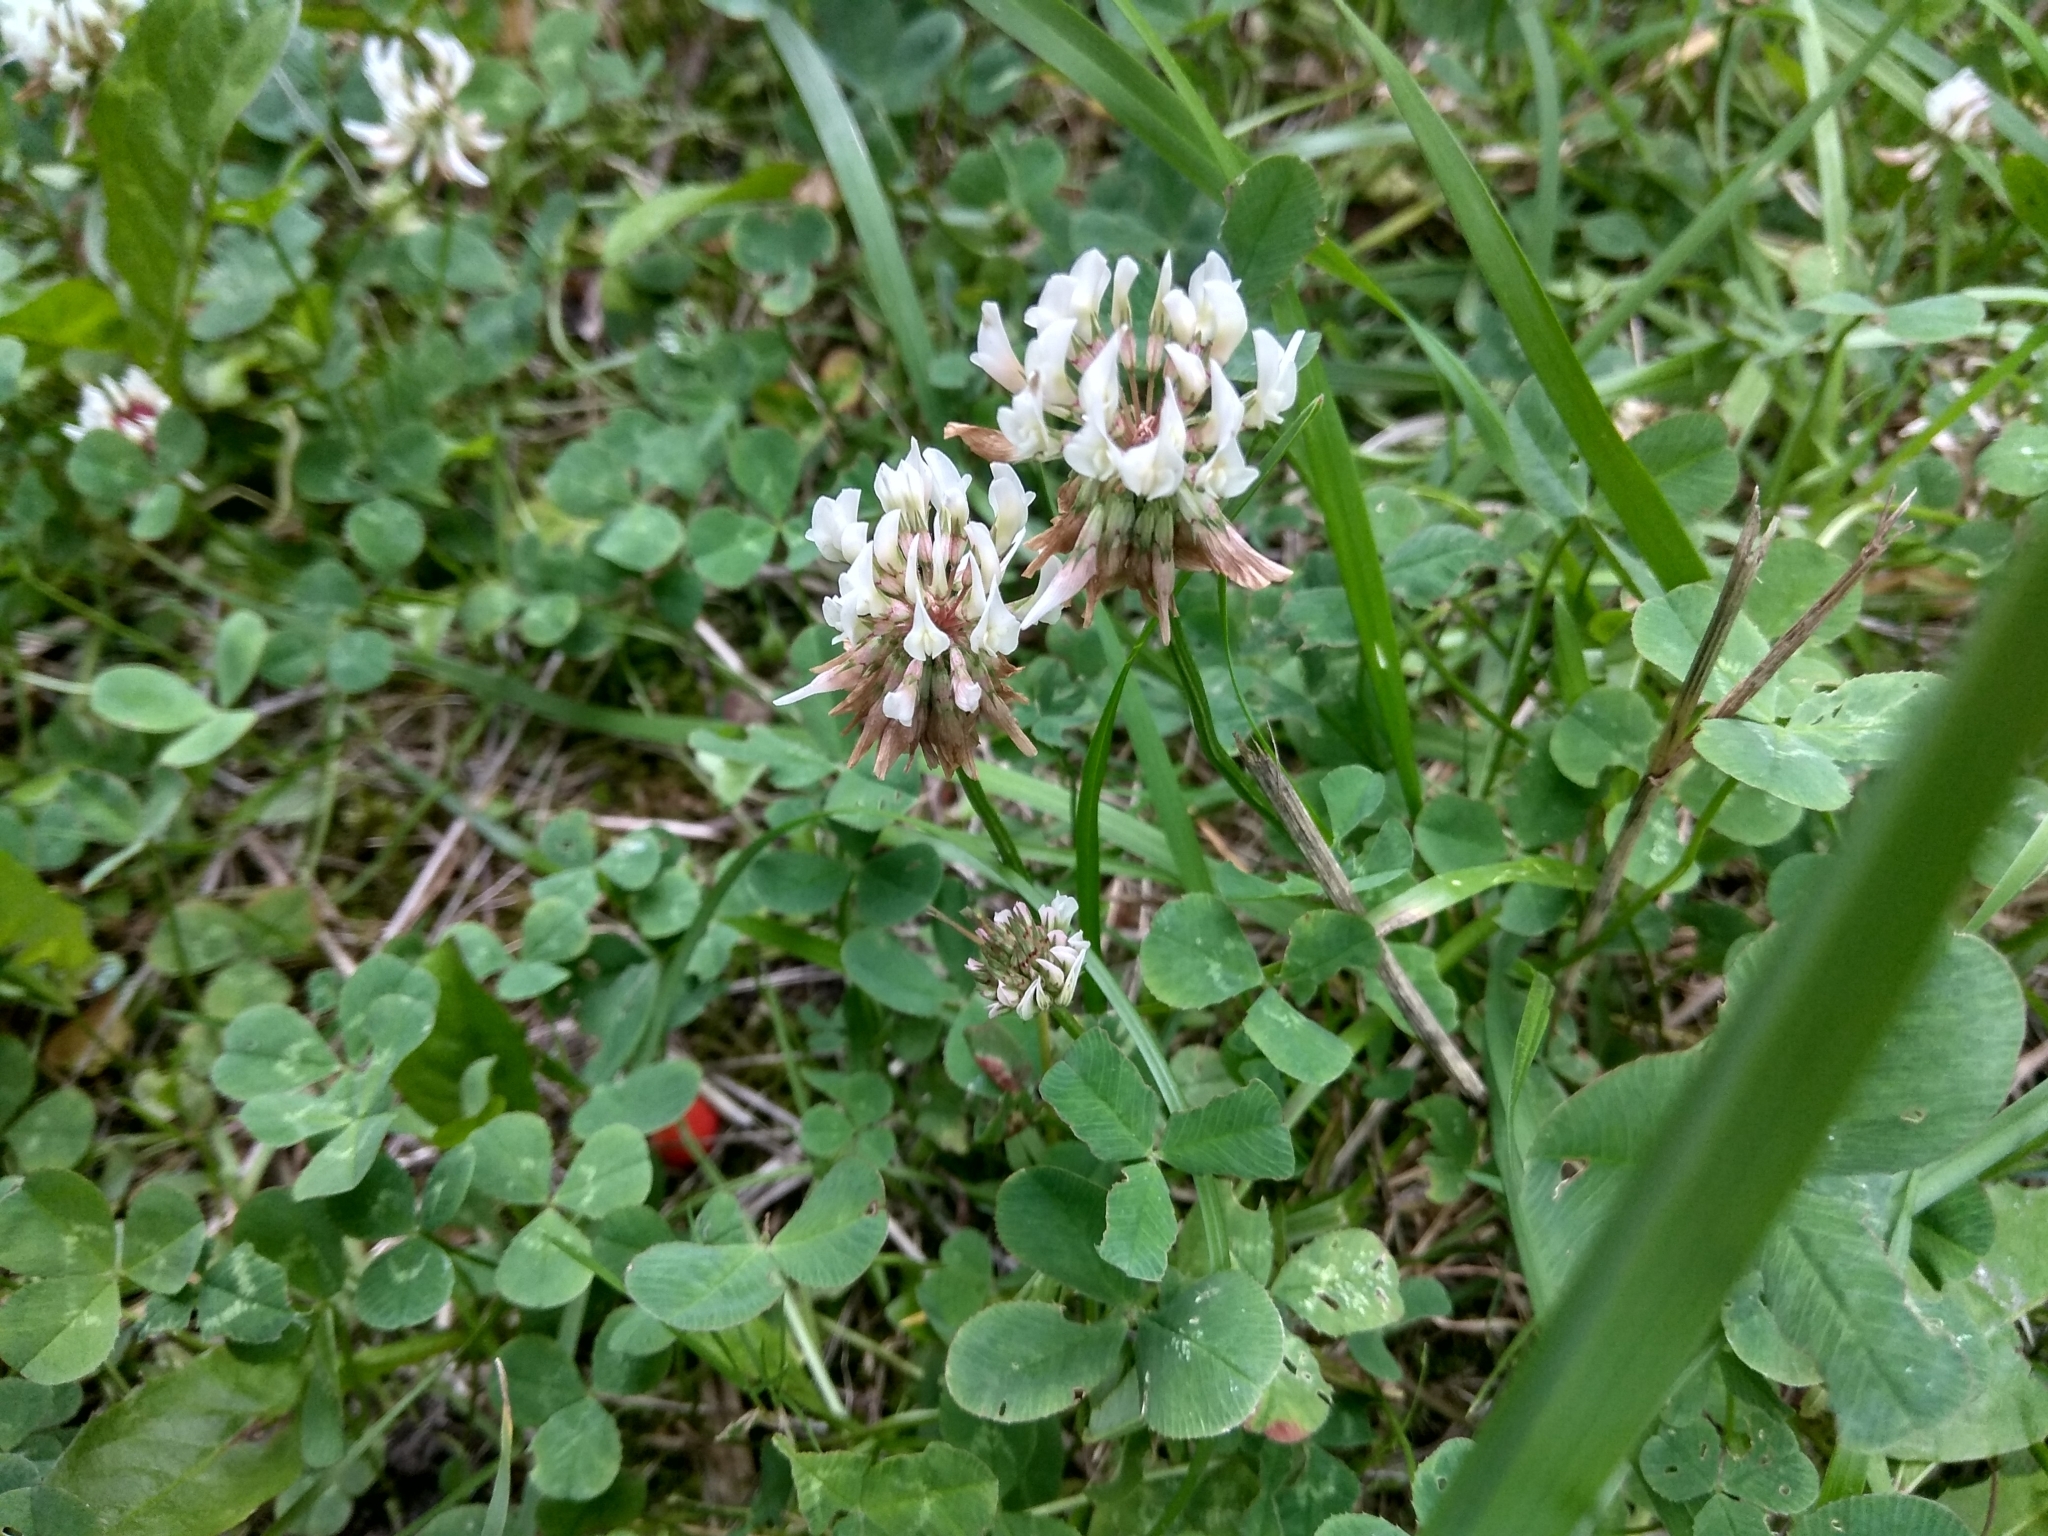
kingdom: Plantae
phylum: Tracheophyta
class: Magnoliopsida
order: Fabales
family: Fabaceae
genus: Trifolium
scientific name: Trifolium repens
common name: White clover
